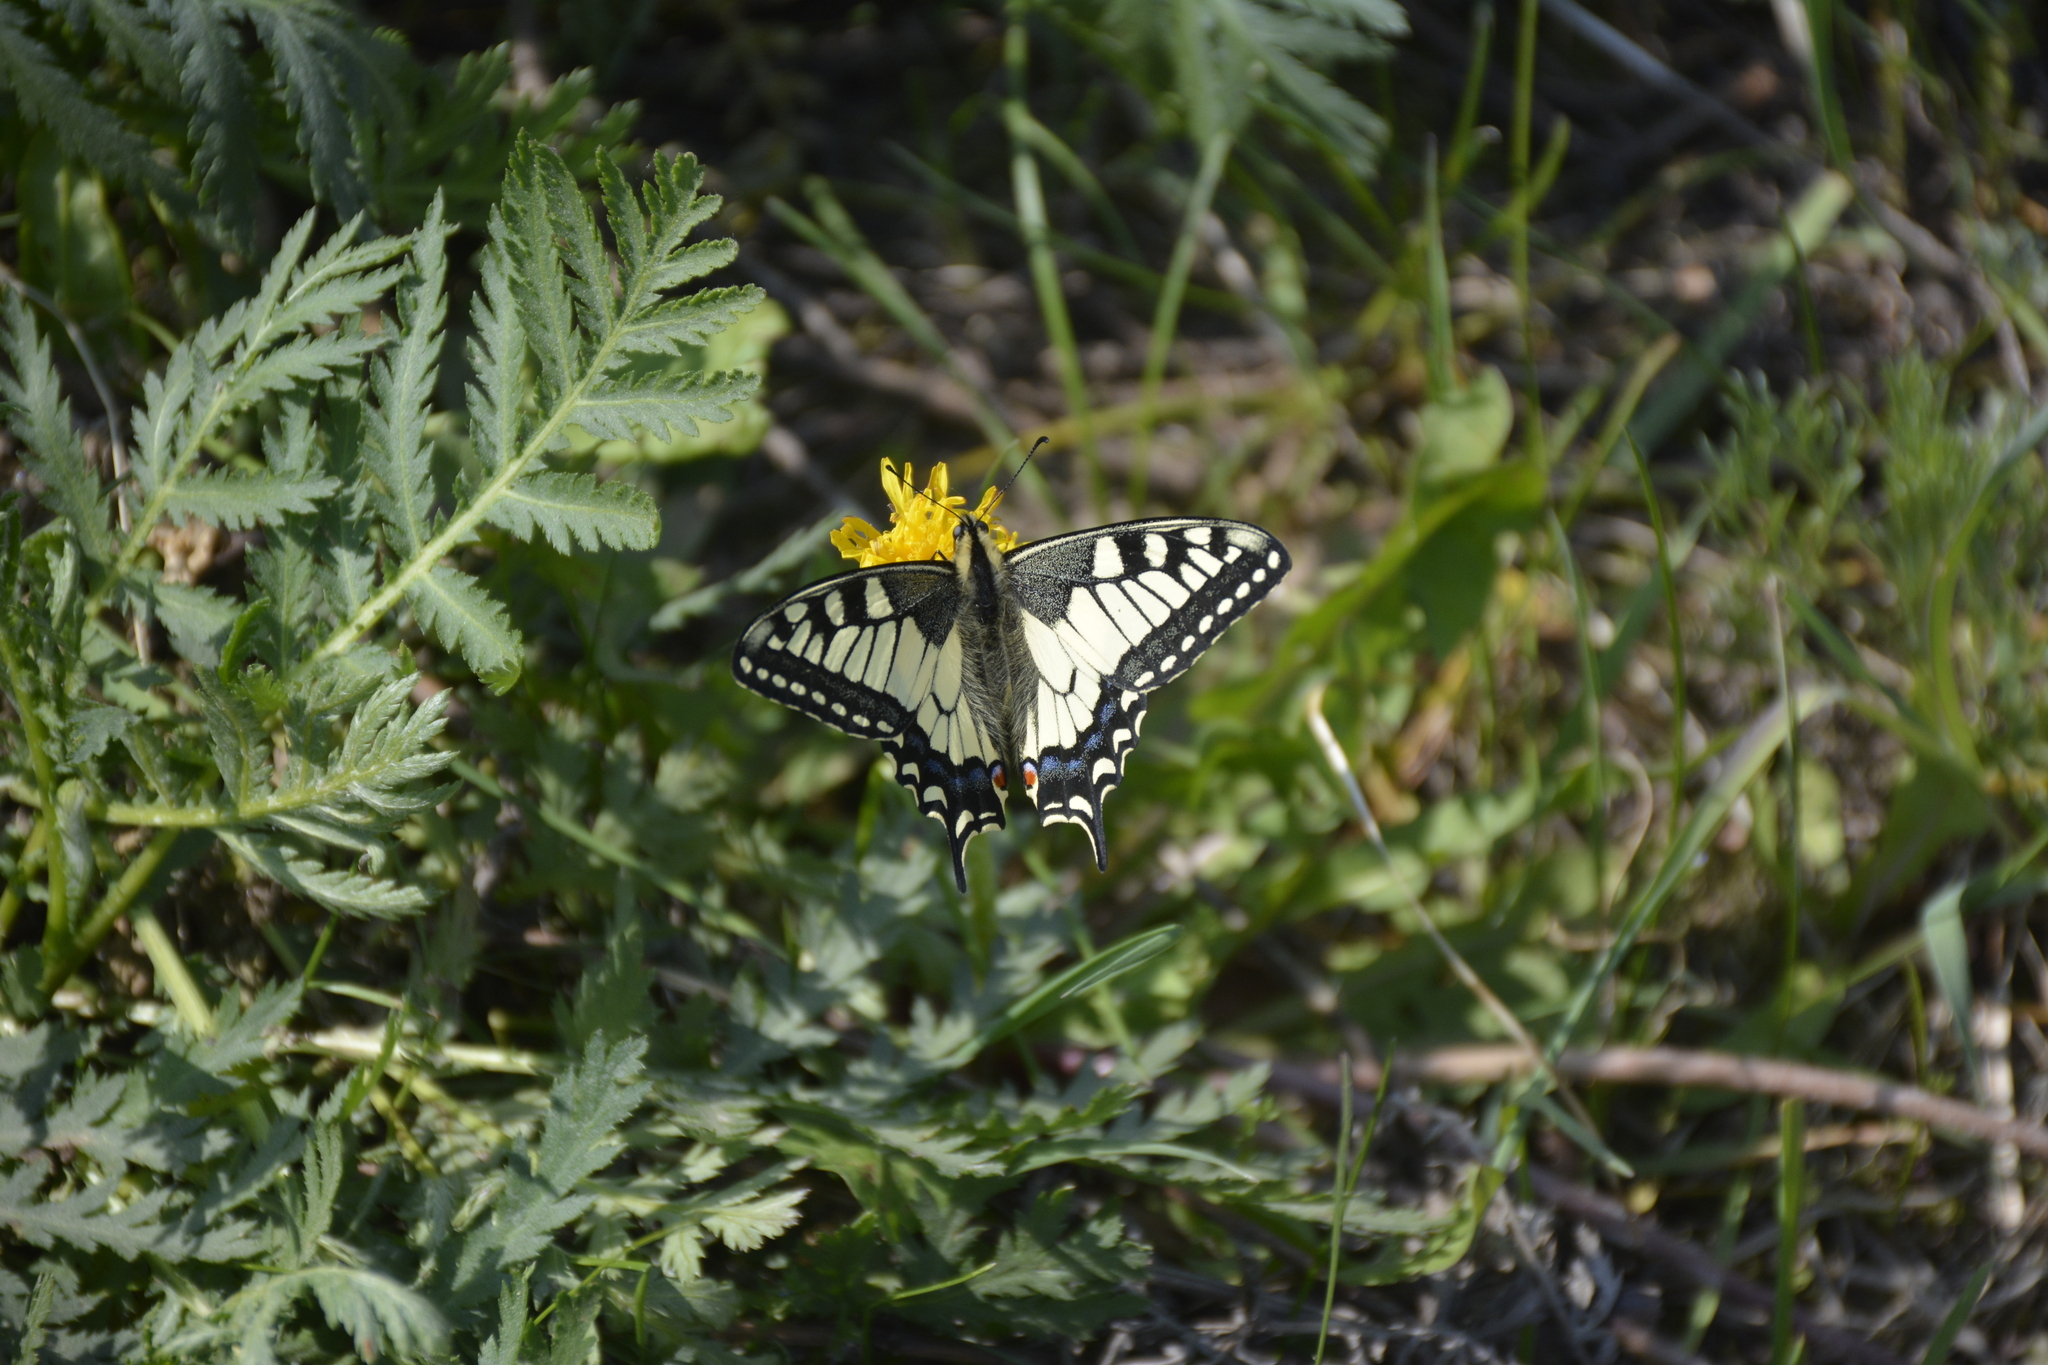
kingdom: Animalia
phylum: Arthropoda
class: Insecta
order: Lepidoptera
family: Papilionidae
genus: Papilio
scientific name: Papilio machaon
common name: Swallowtail
